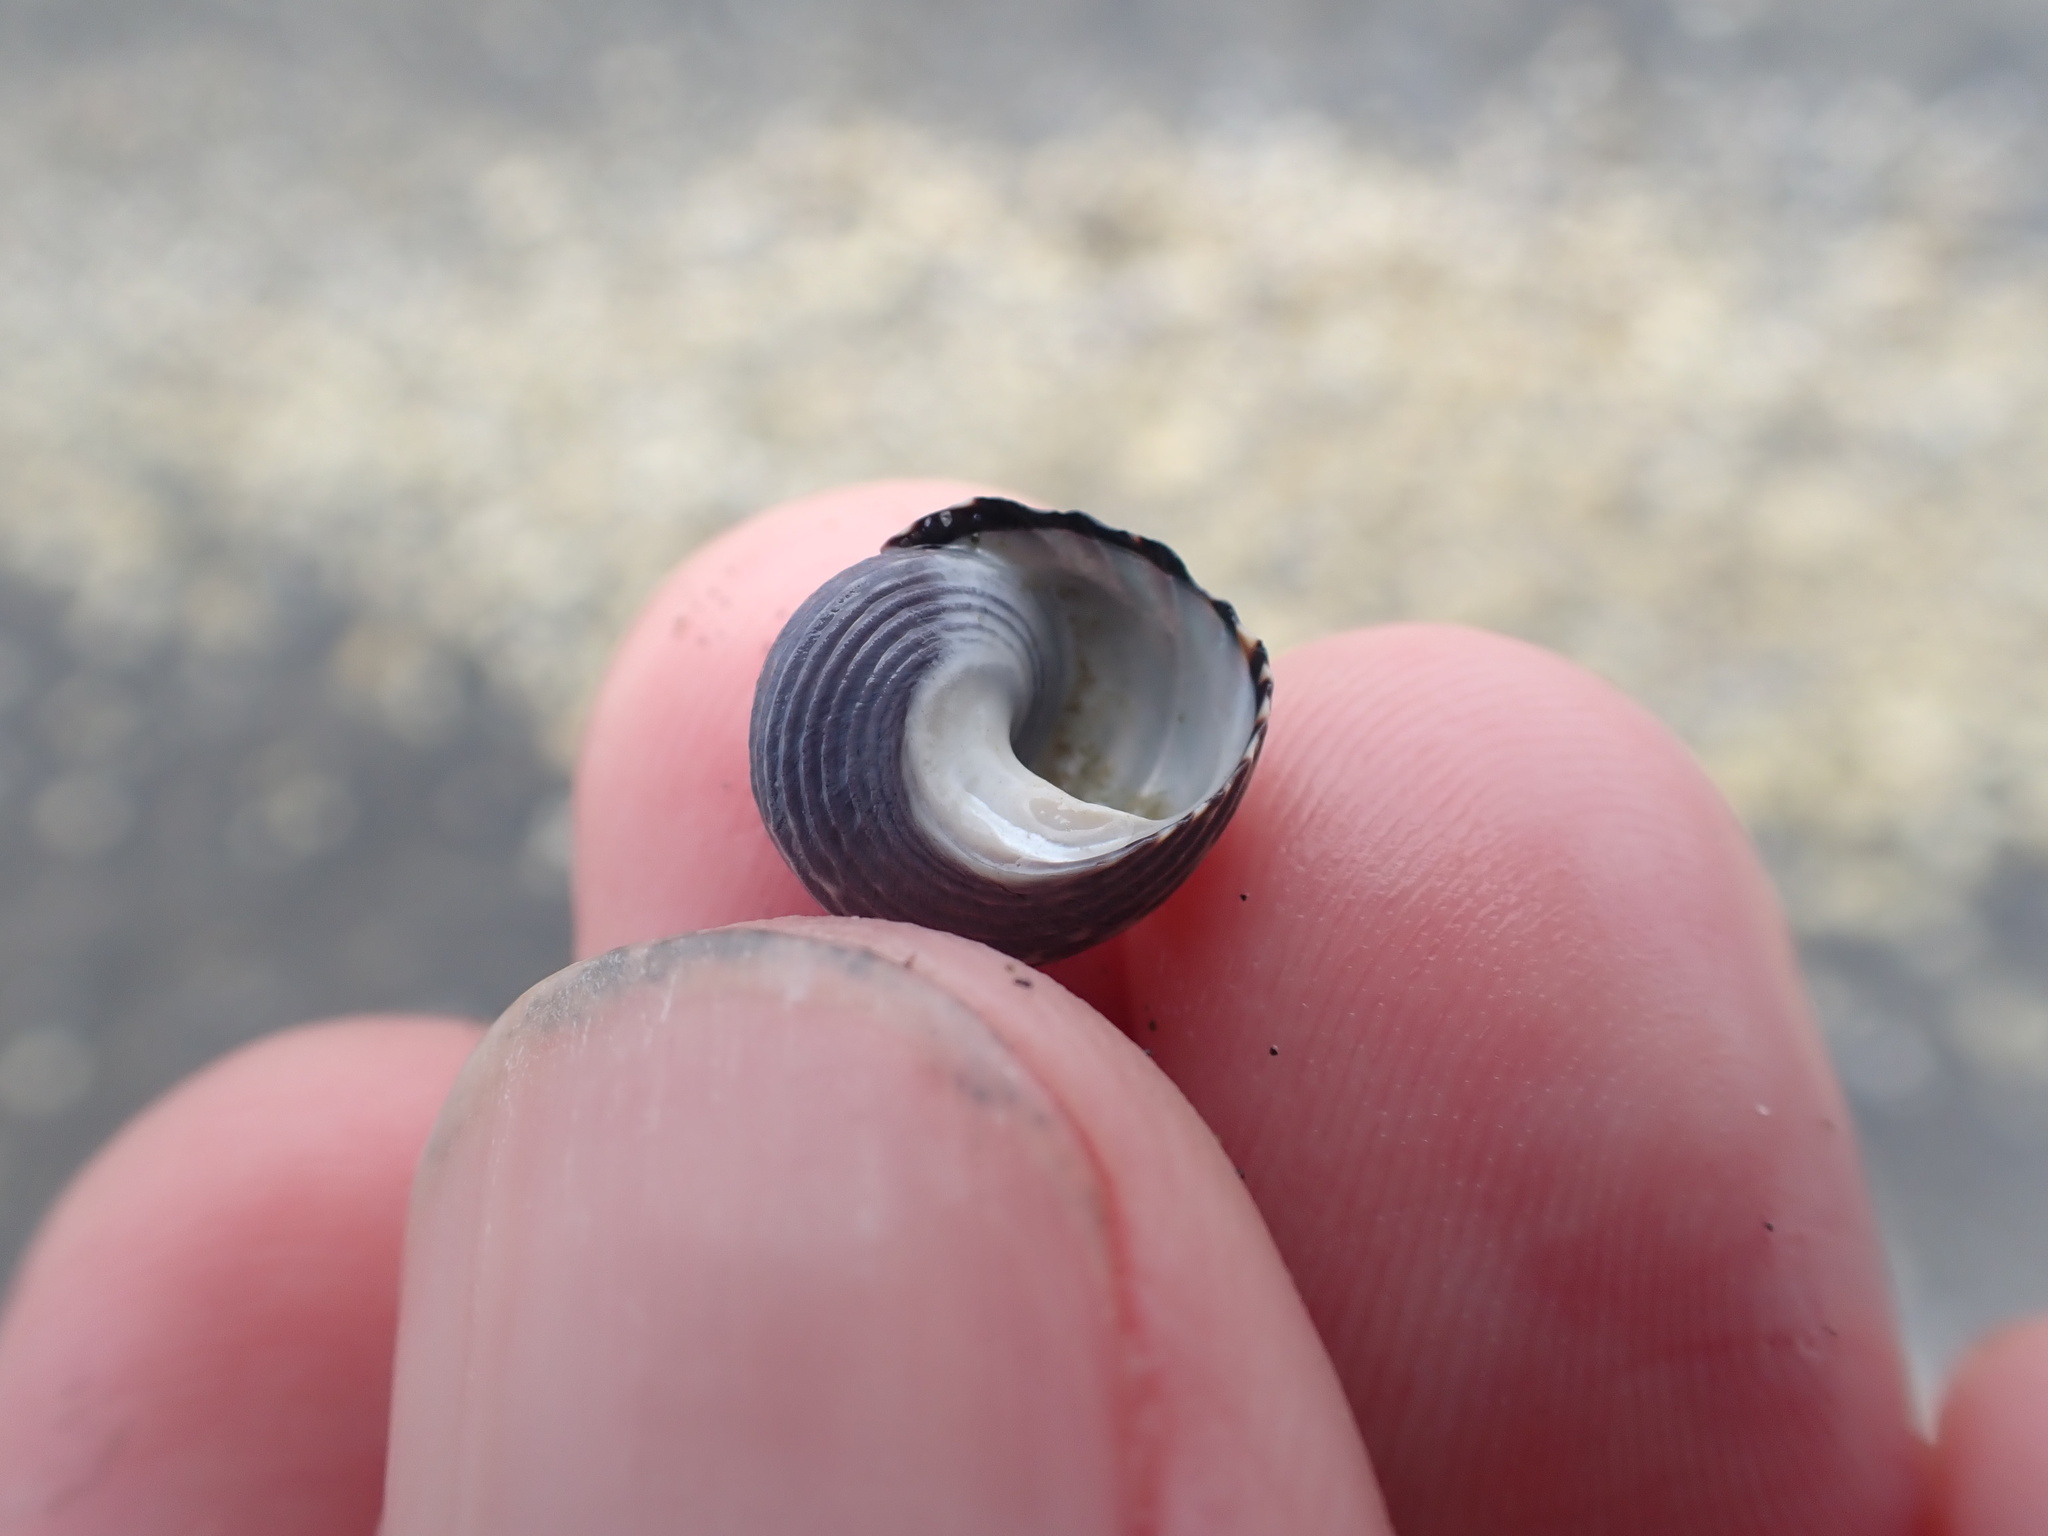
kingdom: Animalia
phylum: Mollusca
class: Gastropoda
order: Trochida
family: Trochidae
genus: Diloma
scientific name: Diloma subrostratum
